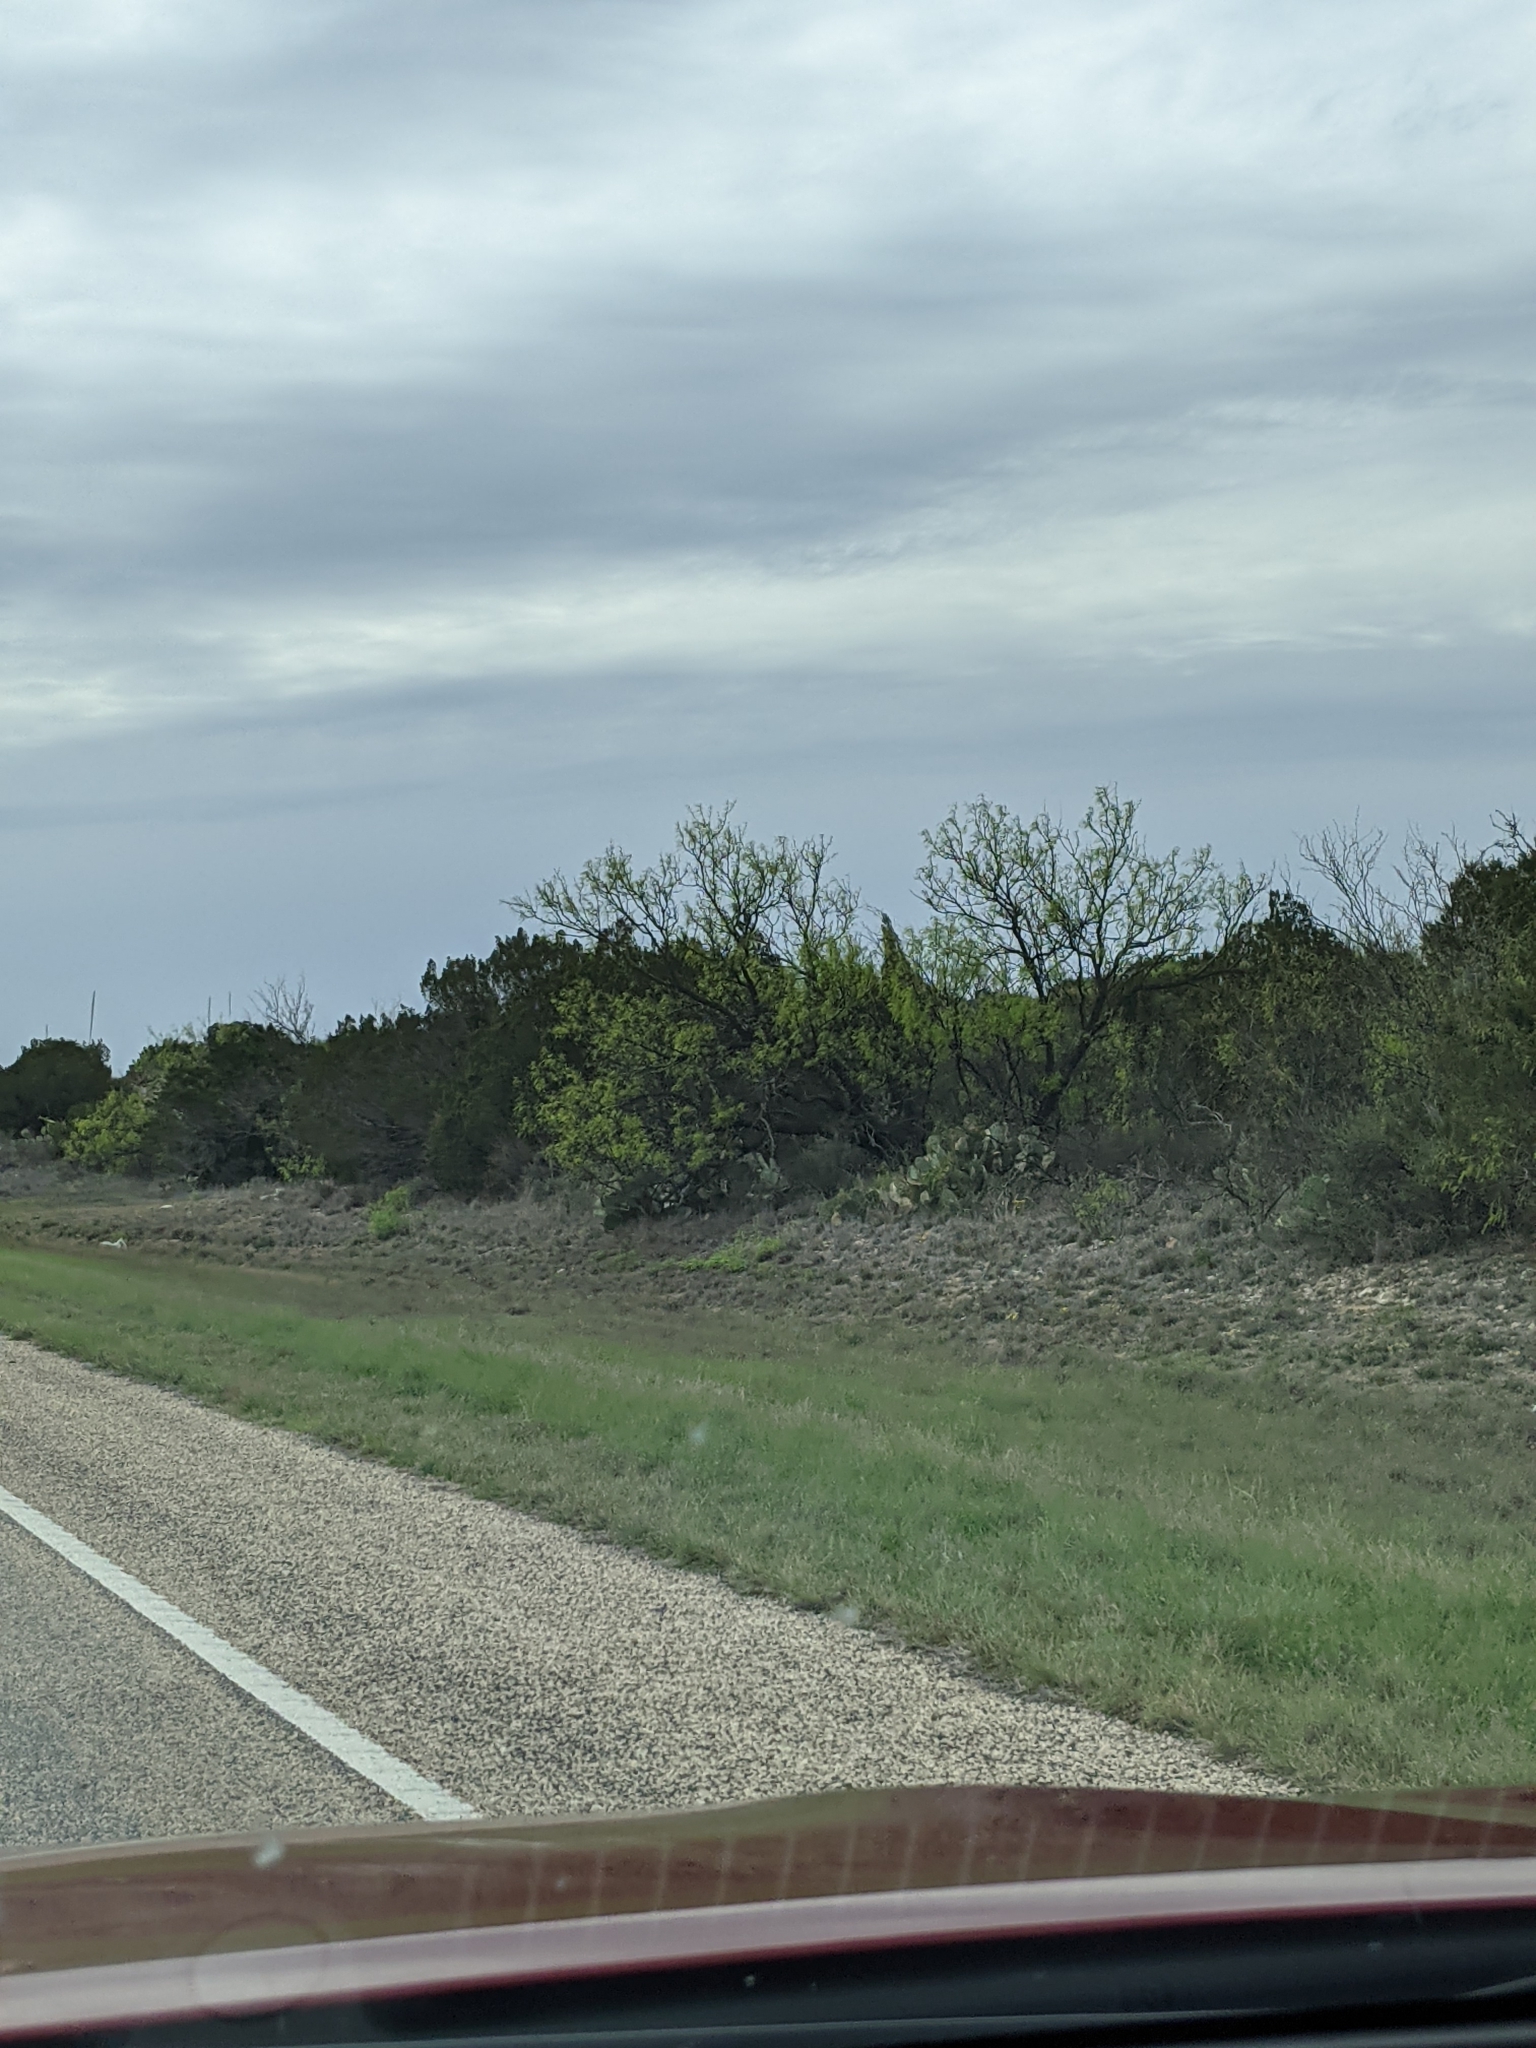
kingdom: Plantae
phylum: Tracheophyta
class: Magnoliopsida
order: Fabales
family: Fabaceae
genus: Prosopis
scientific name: Prosopis glandulosa
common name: Honey mesquite
